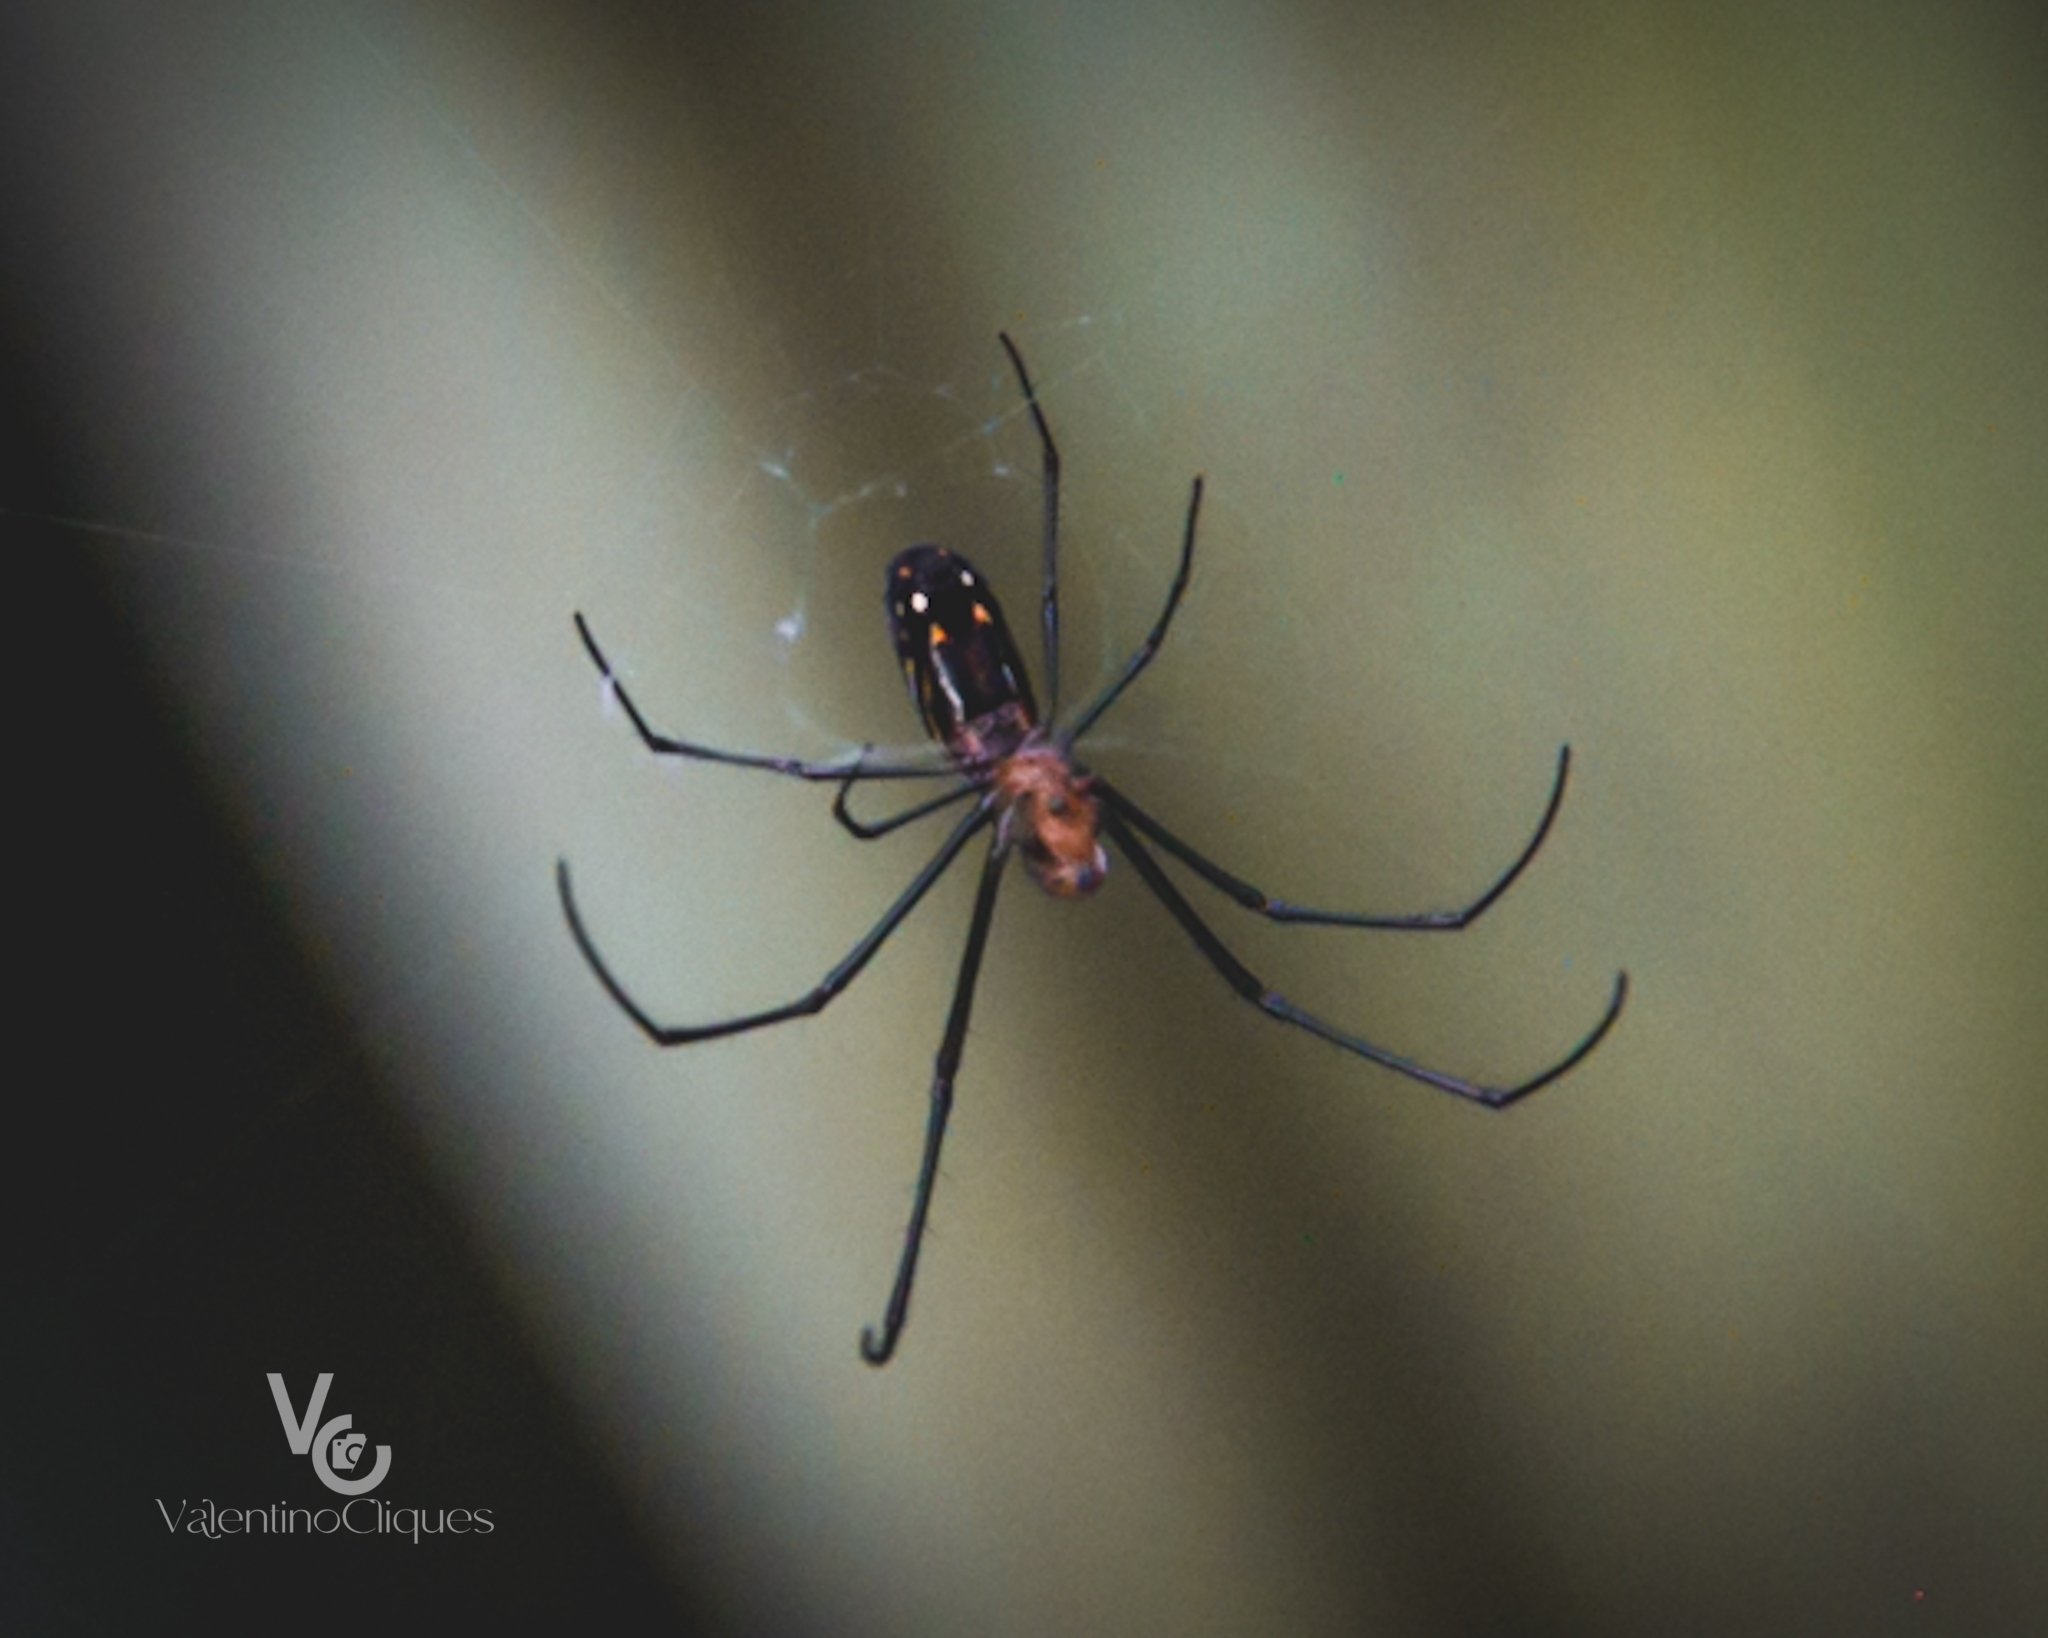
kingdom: Animalia
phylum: Arthropoda
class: Arachnida
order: Araneae
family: Tetragnathidae
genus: Leucauge
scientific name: Leucauge argyra
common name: Longjawed orb weavers
